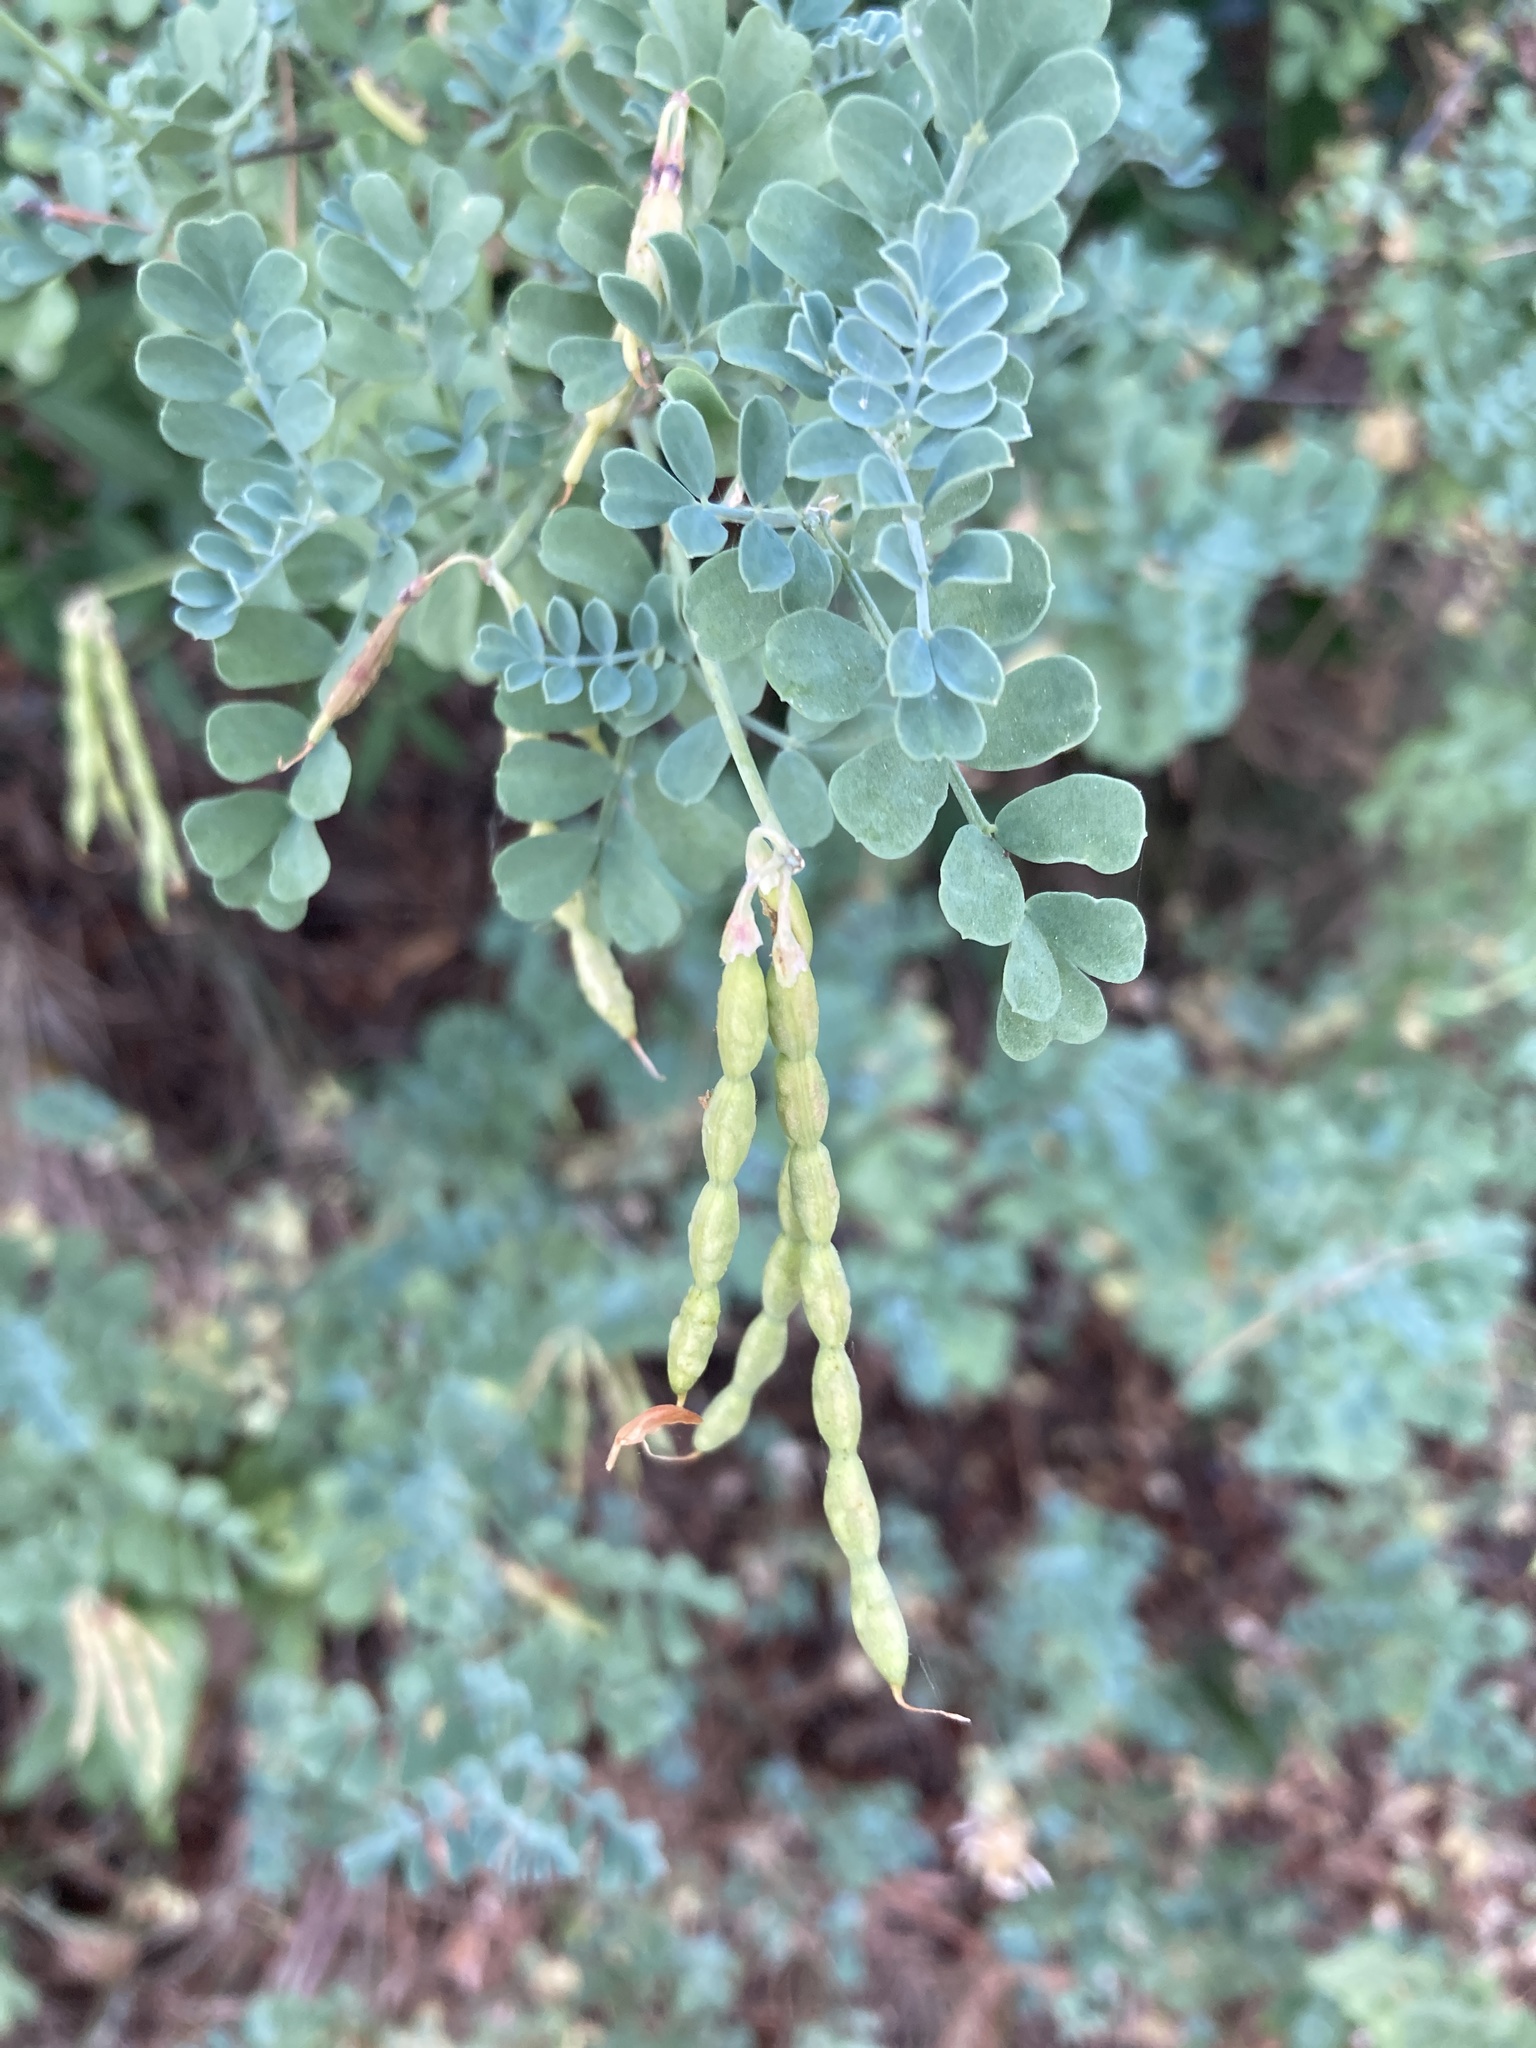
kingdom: Plantae
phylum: Tracheophyta
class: Magnoliopsida
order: Fabales
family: Fabaceae
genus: Coronilla
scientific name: Coronilla valentina
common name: Shrubby scorpion-vetch
